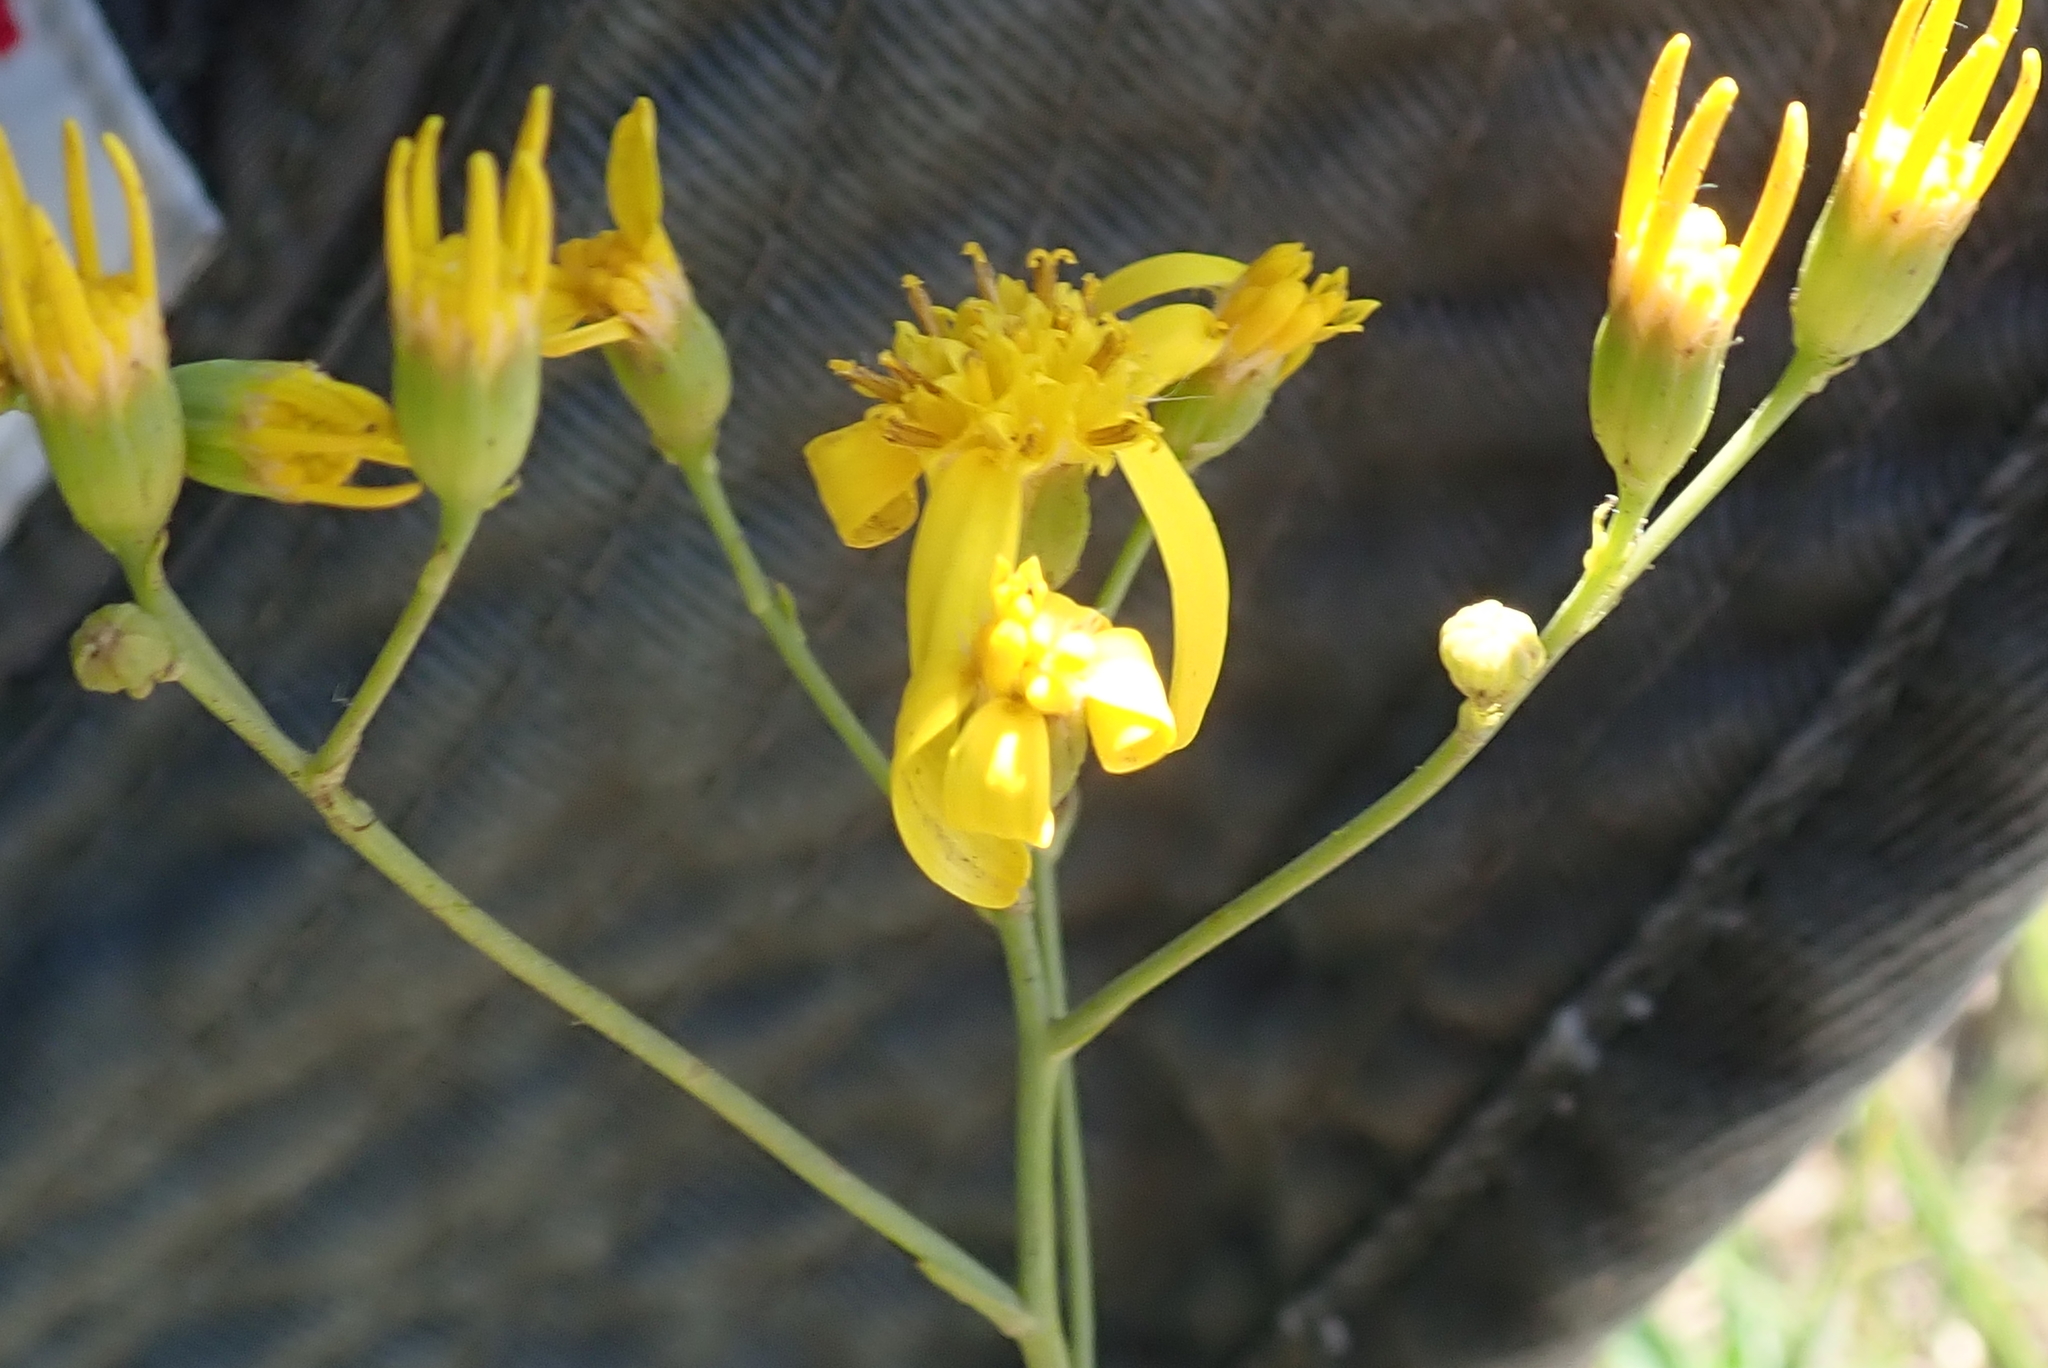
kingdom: Plantae
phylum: Tracheophyta
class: Magnoliopsida
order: Asterales
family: Asteraceae
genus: Senecio
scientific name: Senecio bupleuroides
